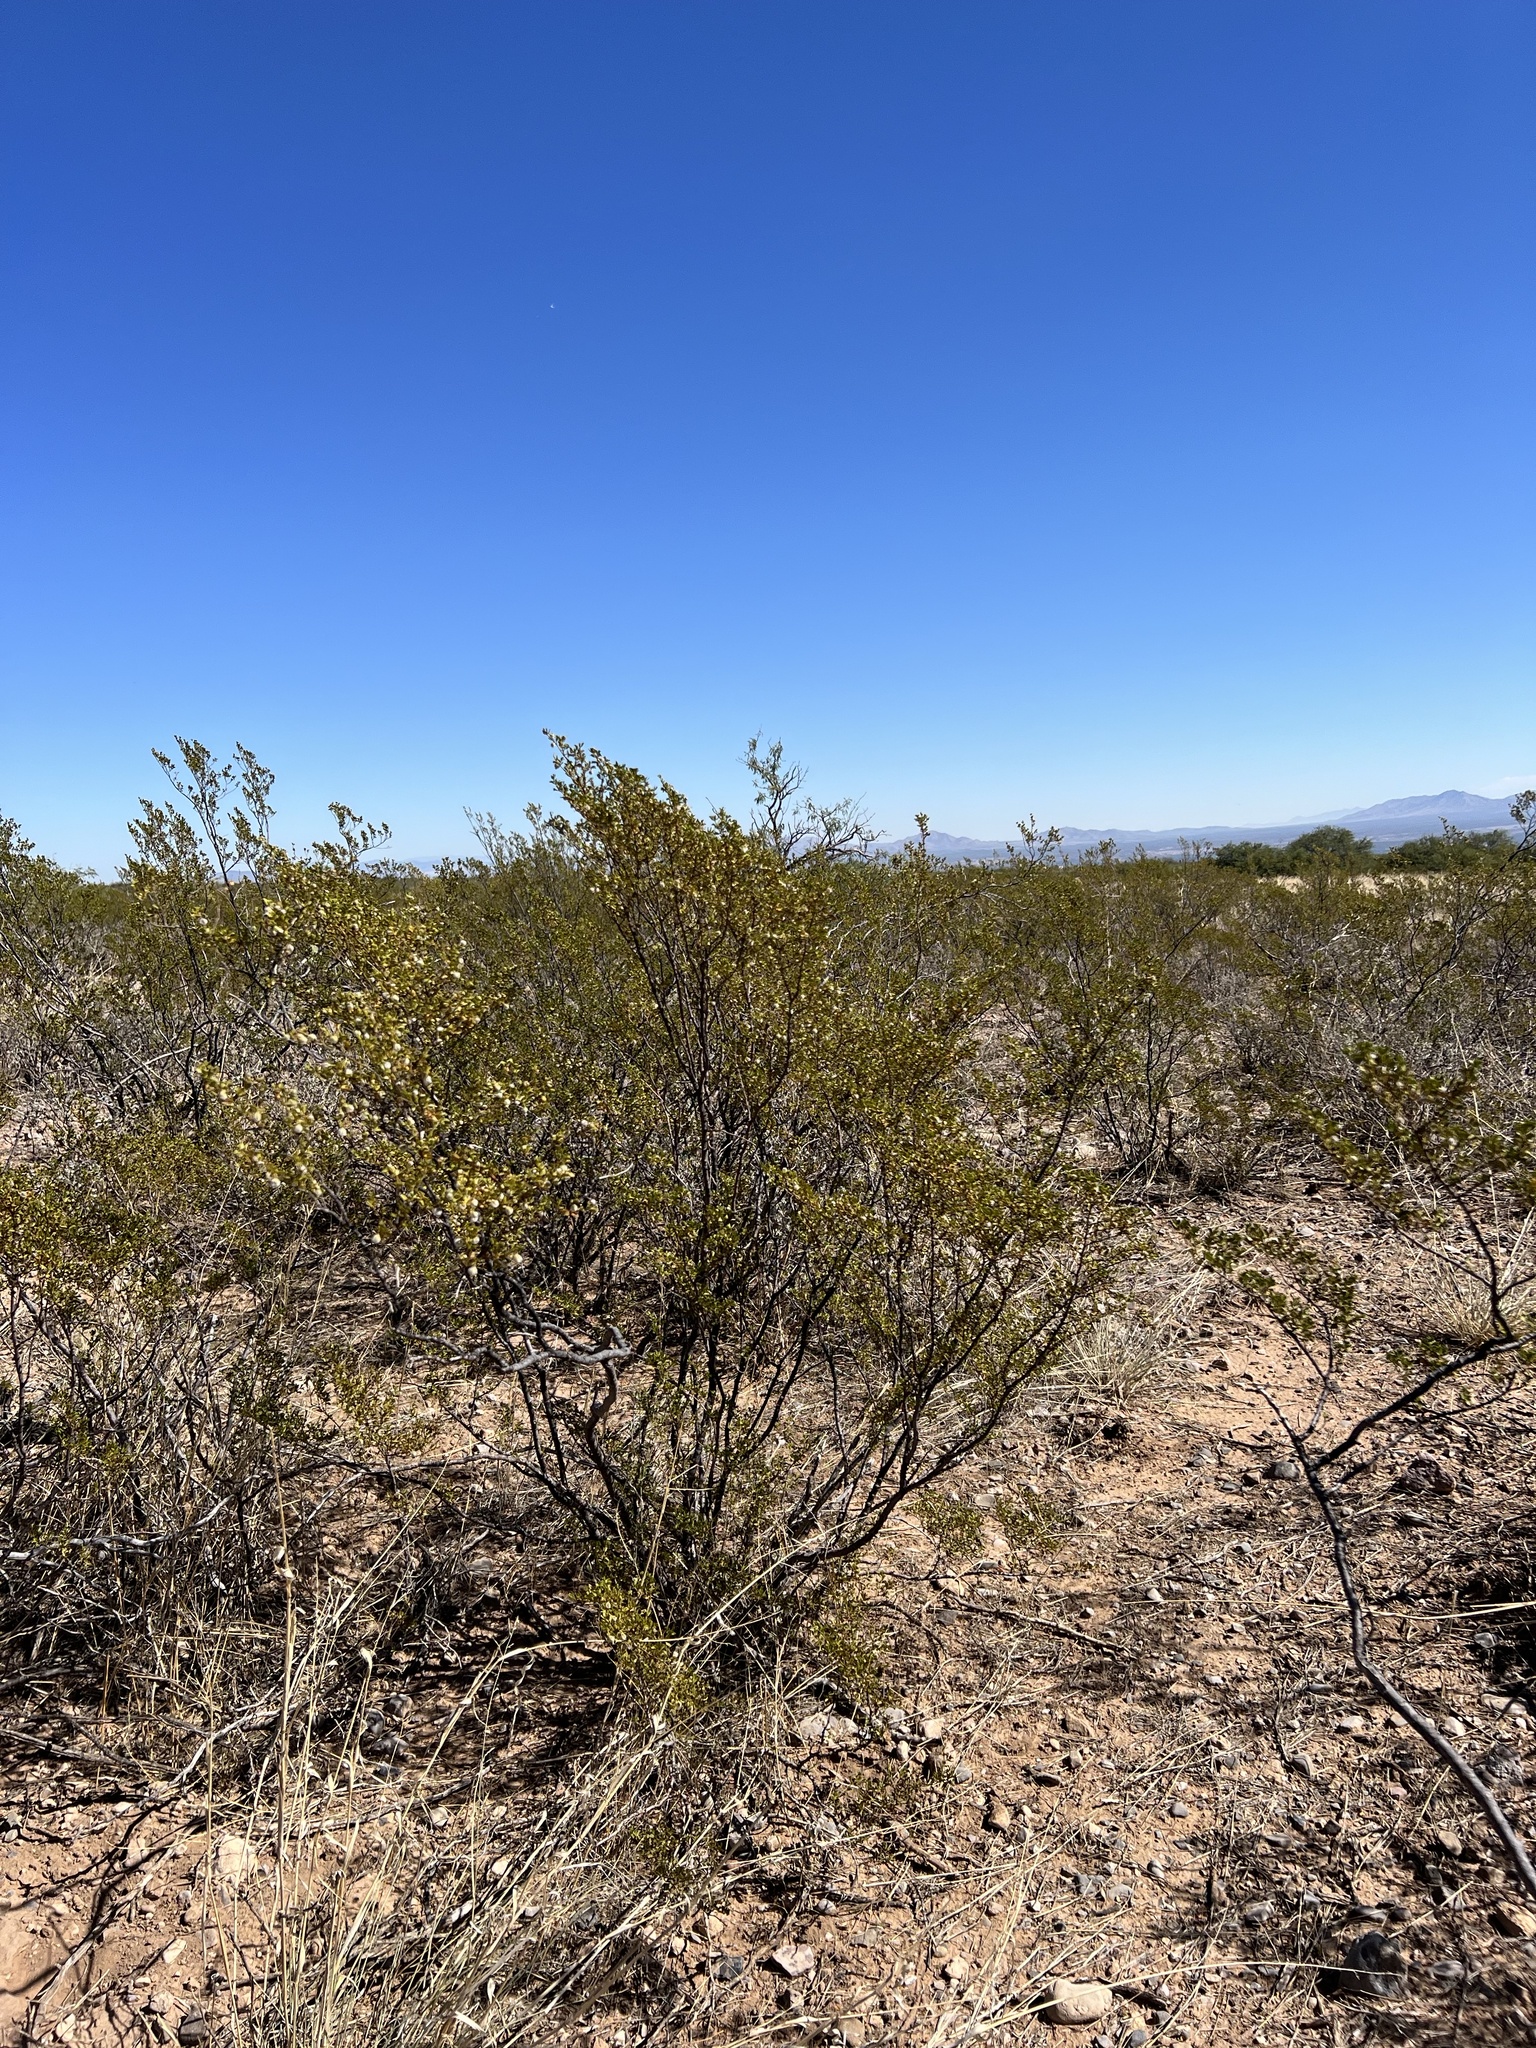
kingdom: Plantae
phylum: Tracheophyta
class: Magnoliopsida
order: Zygophyllales
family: Zygophyllaceae
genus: Larrea
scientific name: Larrea tridentata
